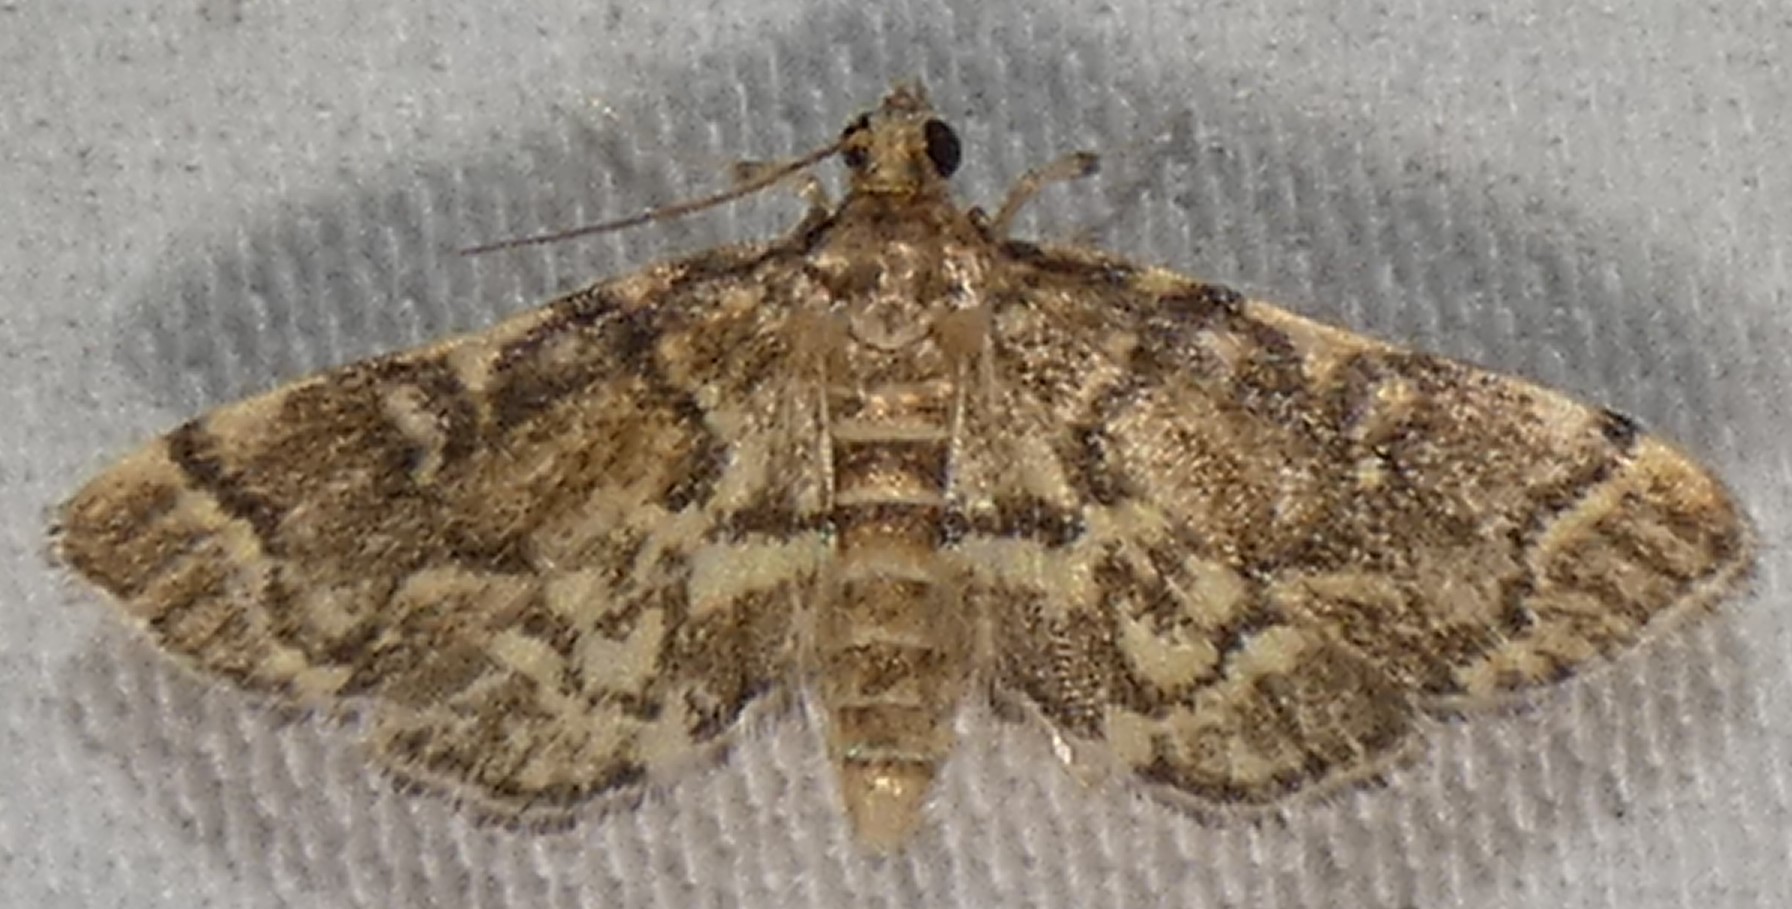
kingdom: Animalia
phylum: Arthropoda
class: Insecta
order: Lepidoptera
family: Crambidae
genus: Anageshna
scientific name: Anageshna primordialis
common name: Yellow-spotted webworm moth
